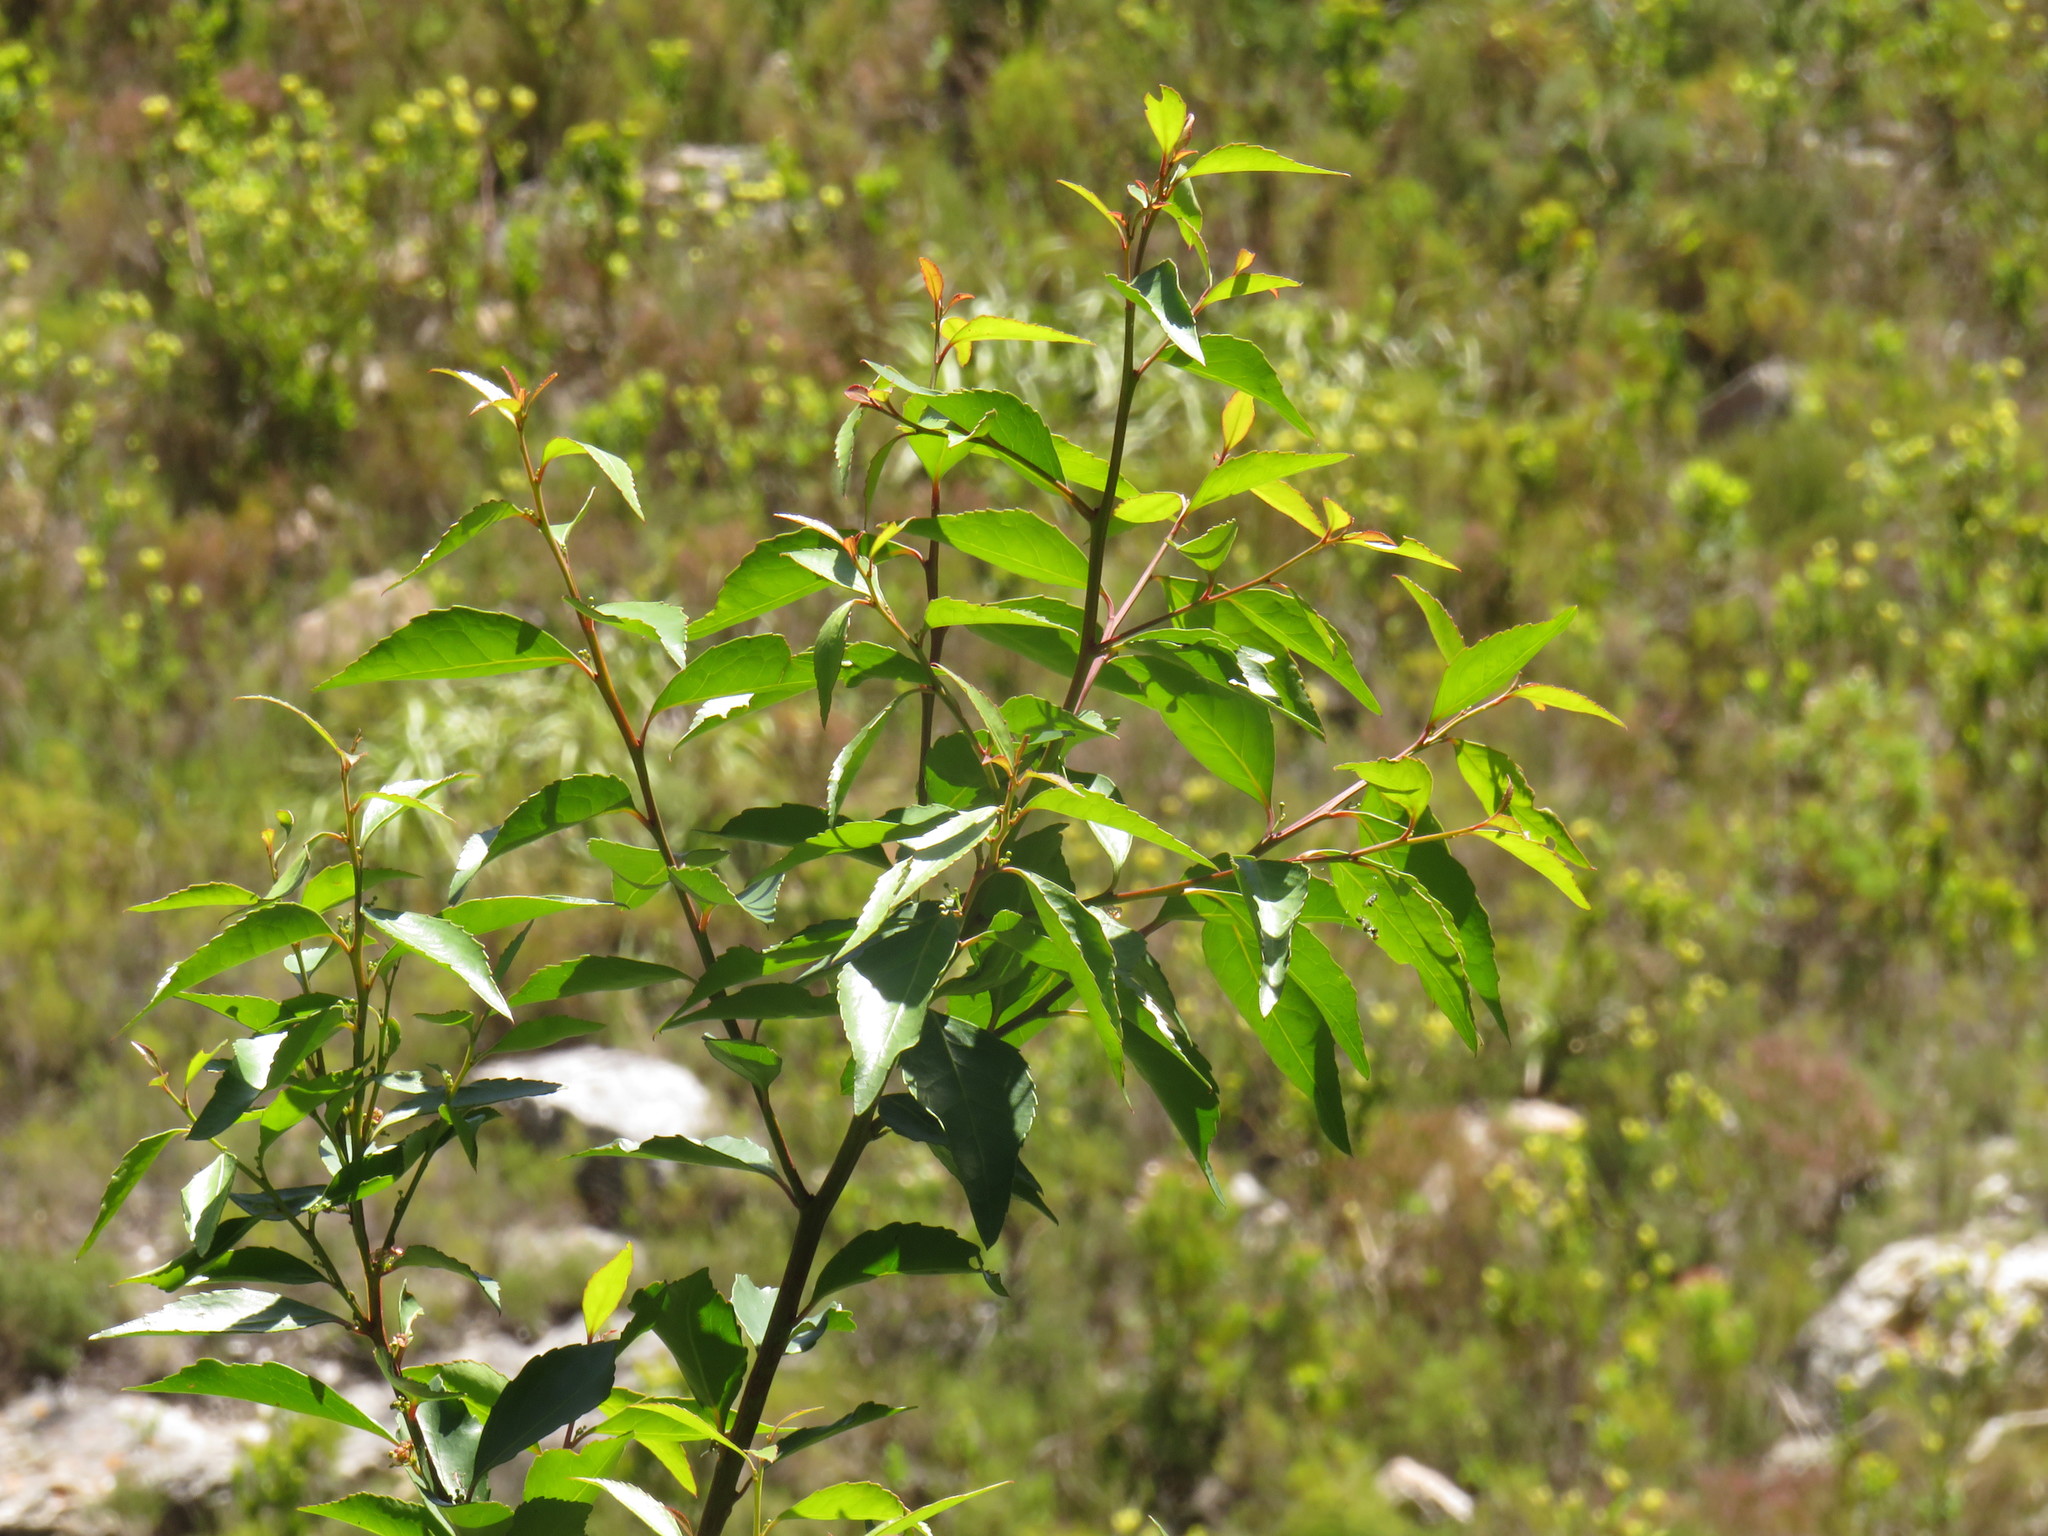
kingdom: Plantae
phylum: Tracheophyta
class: Magnoliopsida
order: Celastrales
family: Celastraceae
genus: Gymnosporia
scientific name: Gymnosporia acuminata
